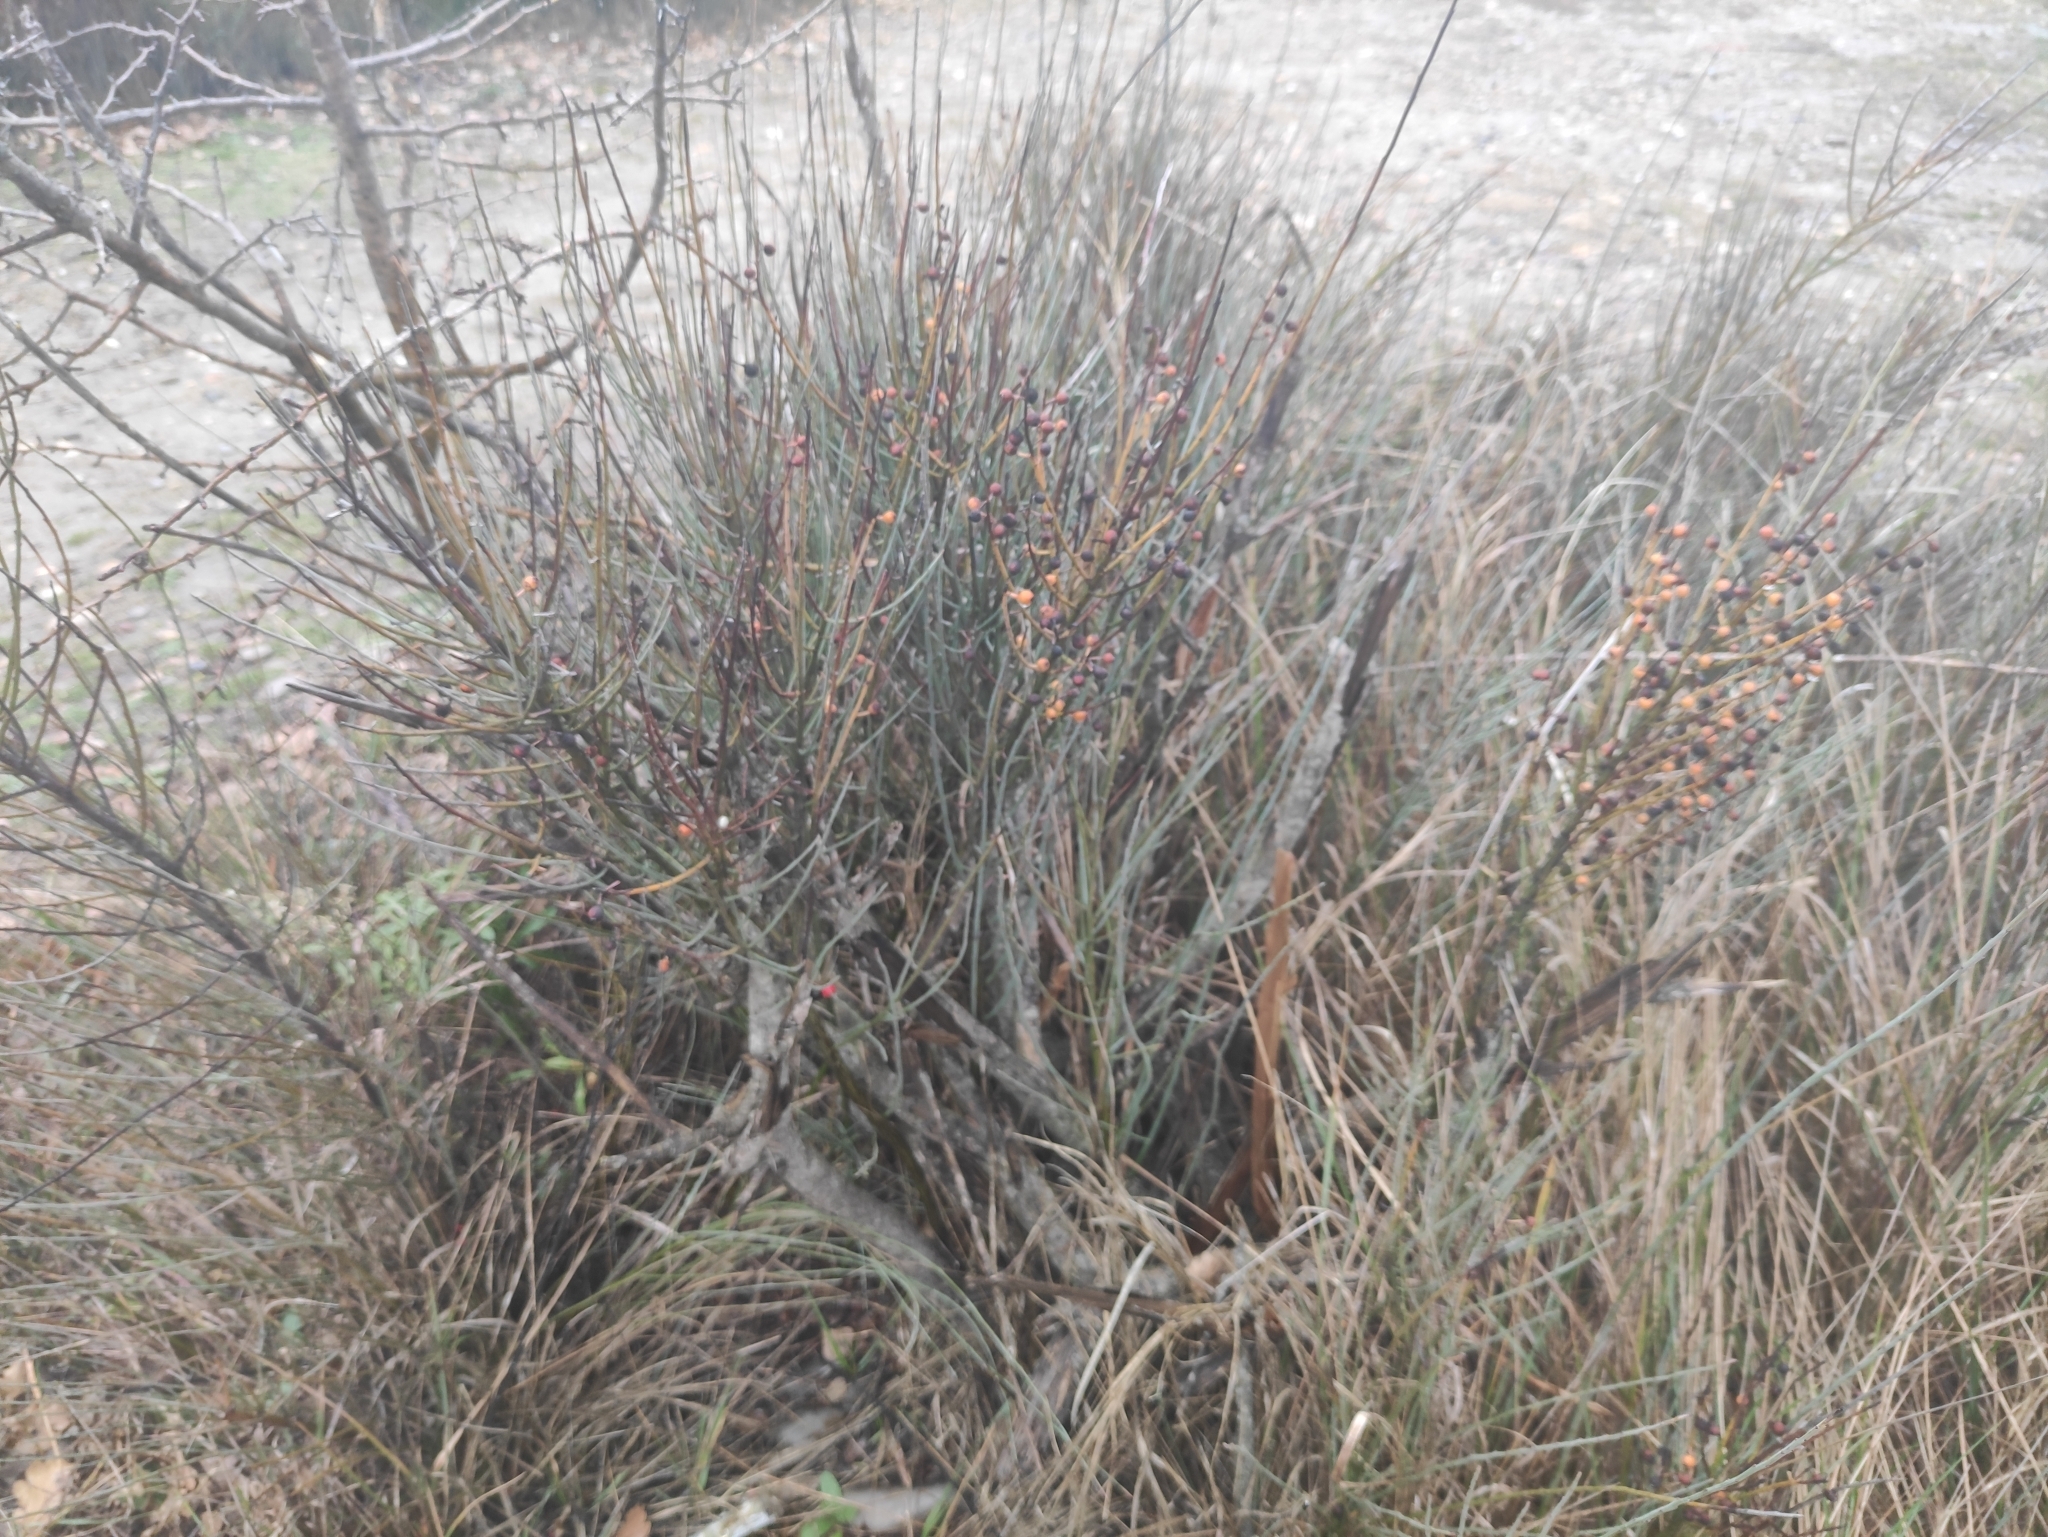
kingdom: Plantae
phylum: Tracheophyta
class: Magnoliopsida
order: Santalales
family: Santalaceae
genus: Osyris
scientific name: Osyris alba
